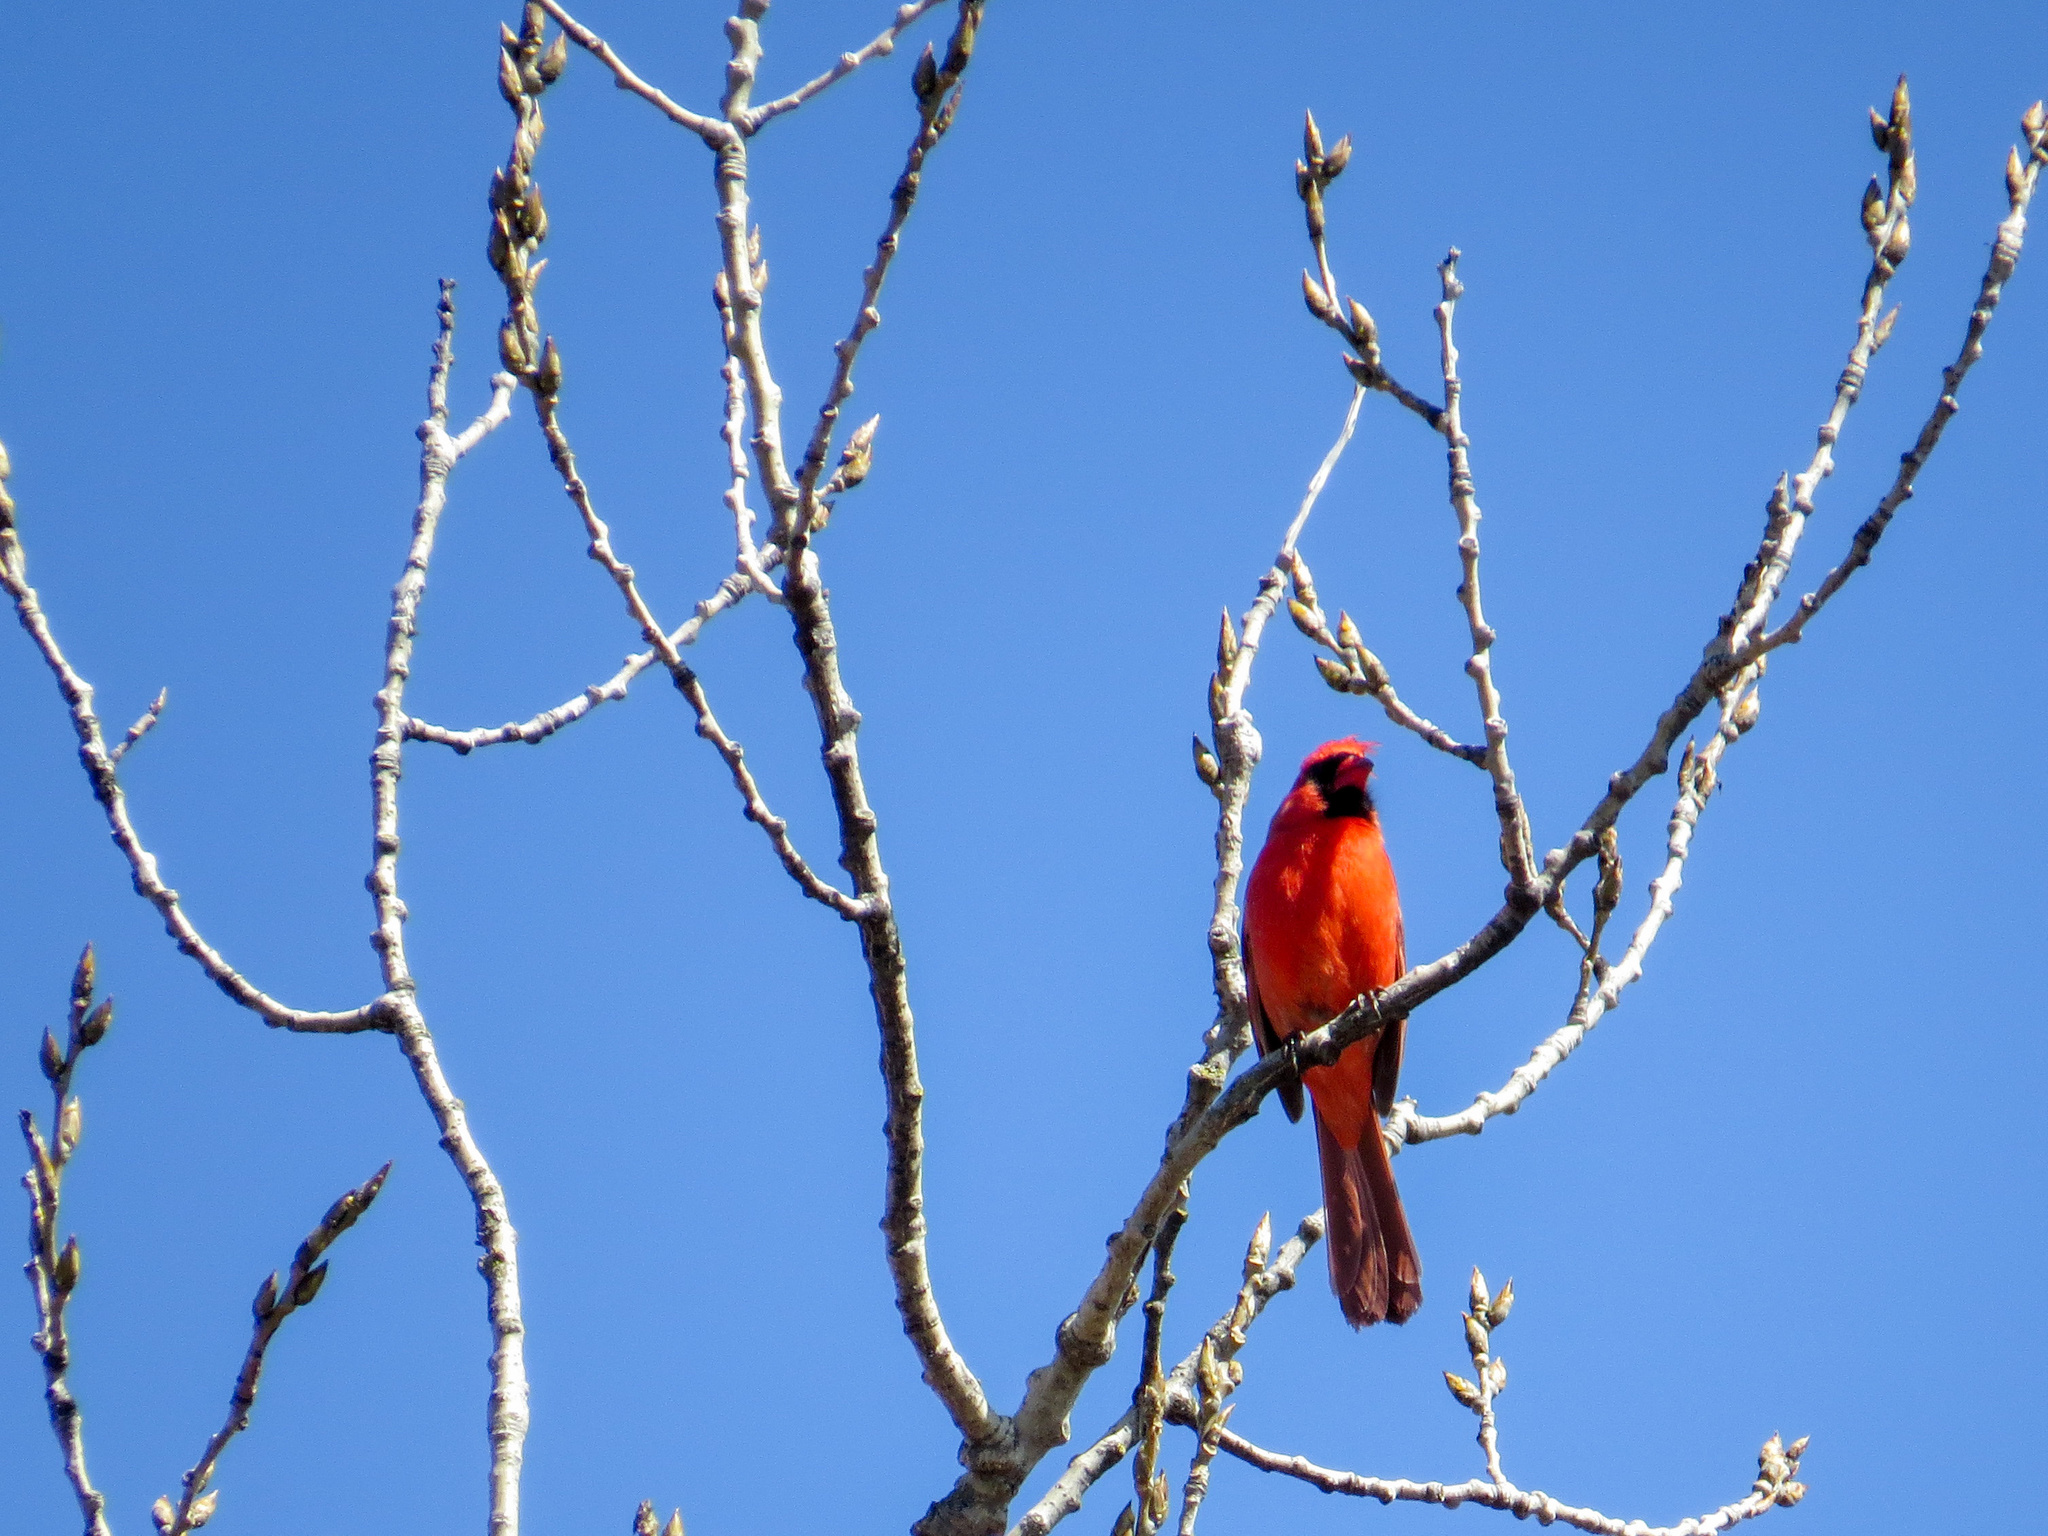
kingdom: Animalia
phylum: Chordata
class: Aves
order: Passeriformes
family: Cardinalidae
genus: Cardinalis
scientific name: Cardinalis cardinalis
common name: Northern cardinal
